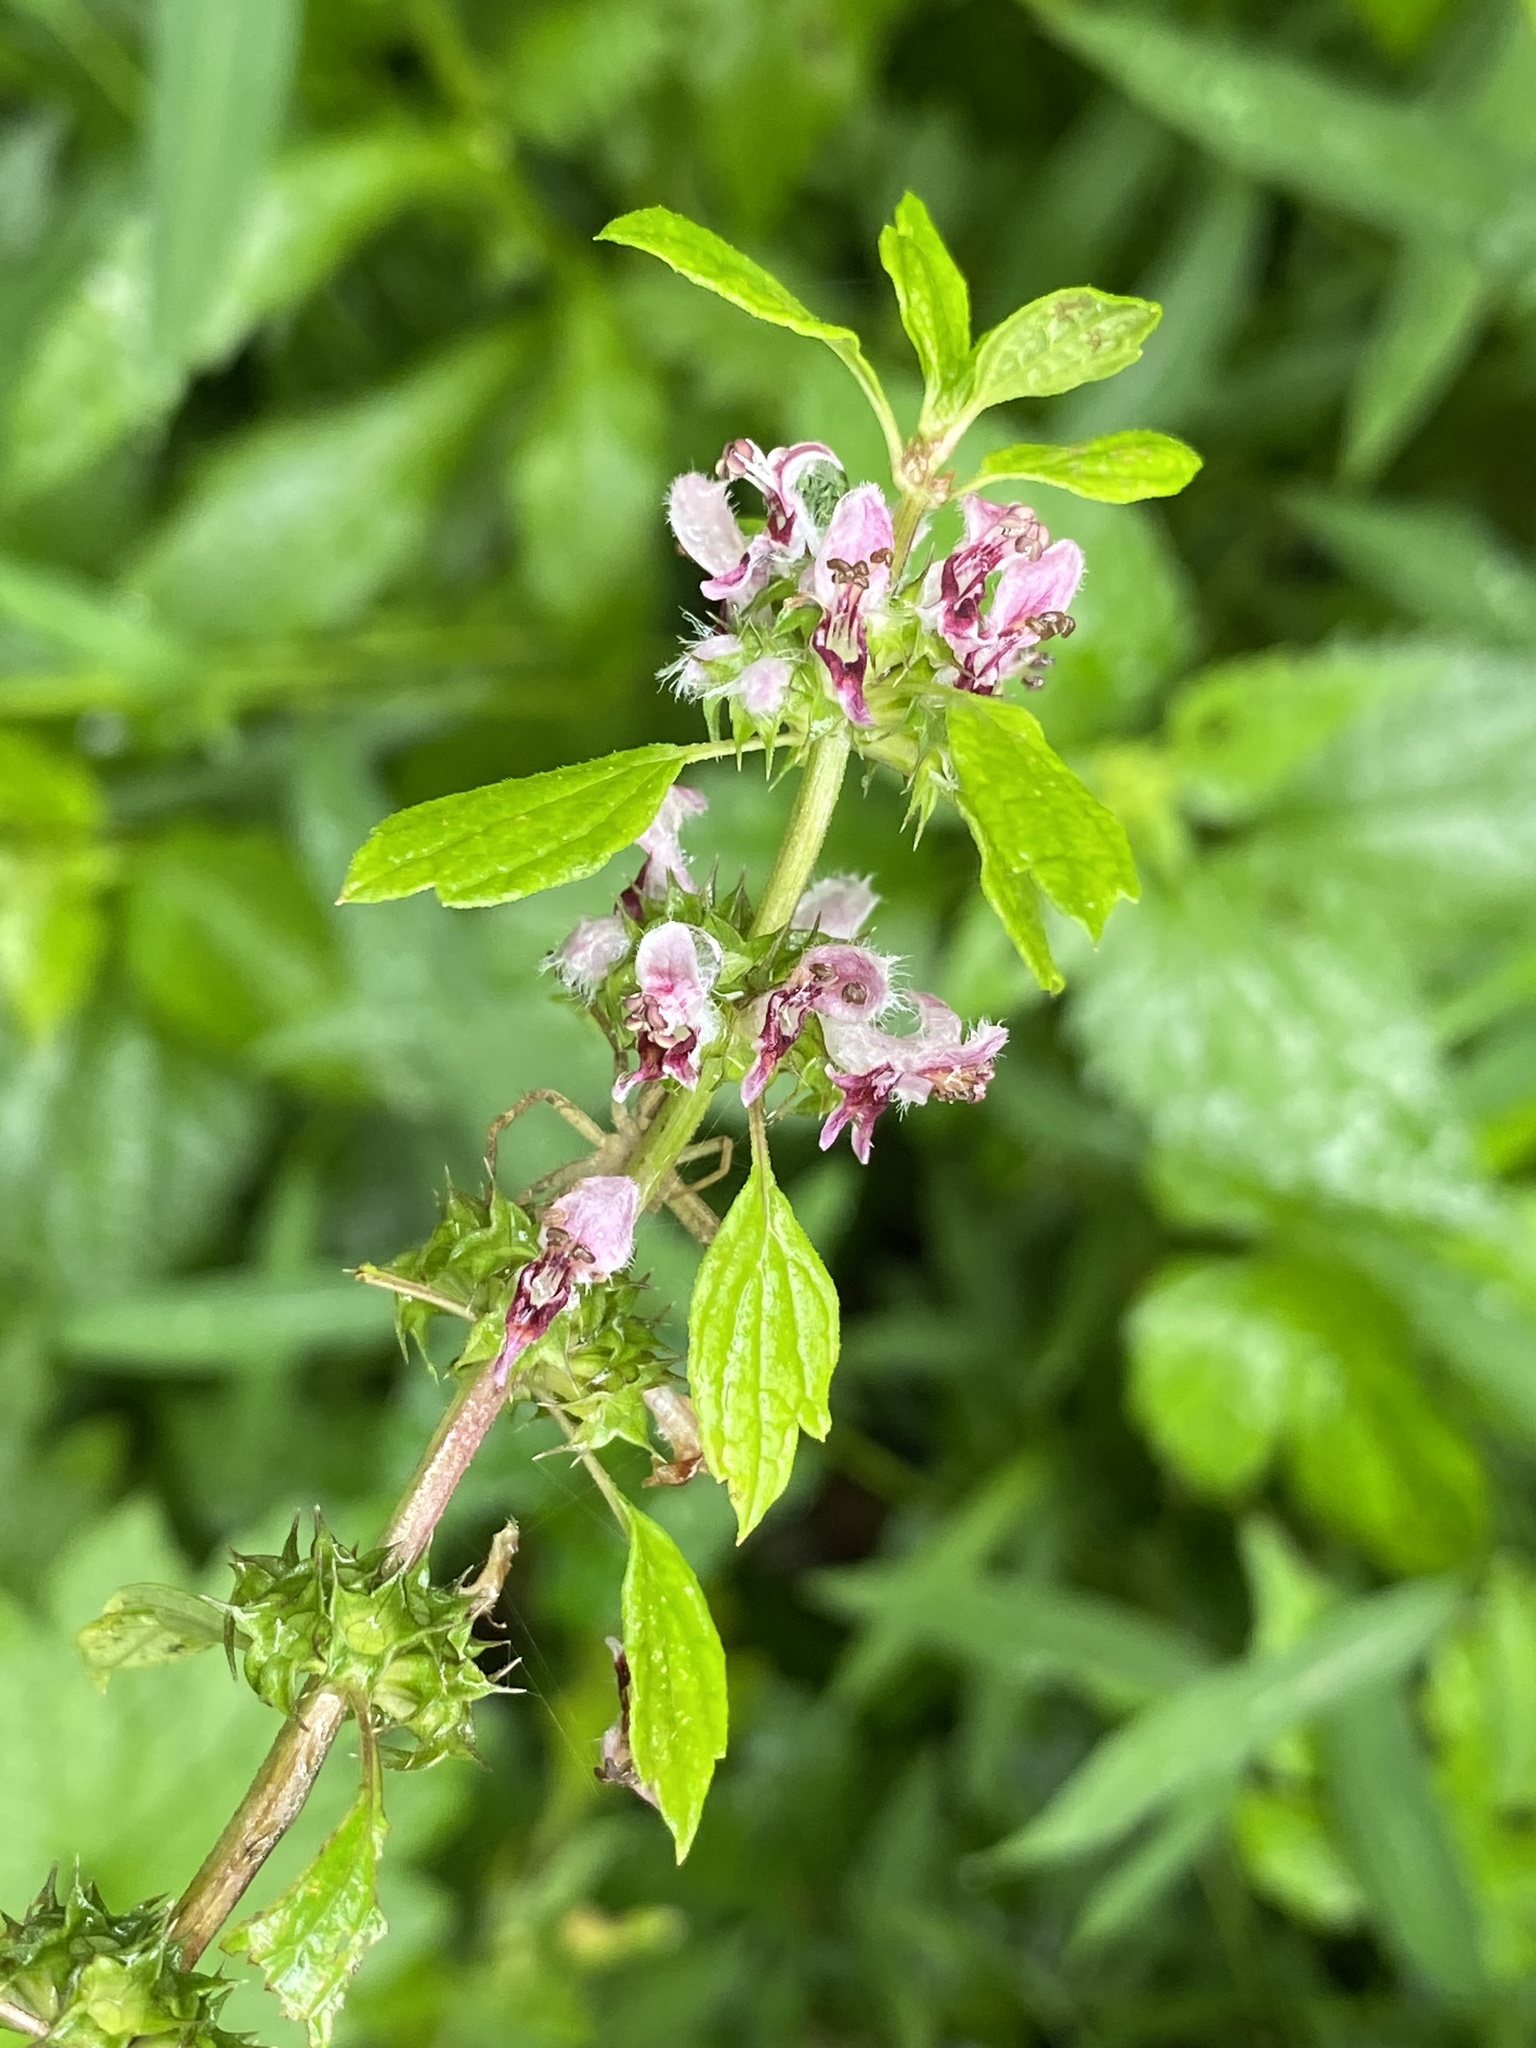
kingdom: Plantae
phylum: Tracheophyta
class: Magnoliopsida
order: Lamiales
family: Lamiaceae
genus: Leonurus
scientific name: Leonurus cardiaca
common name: Motherwort
